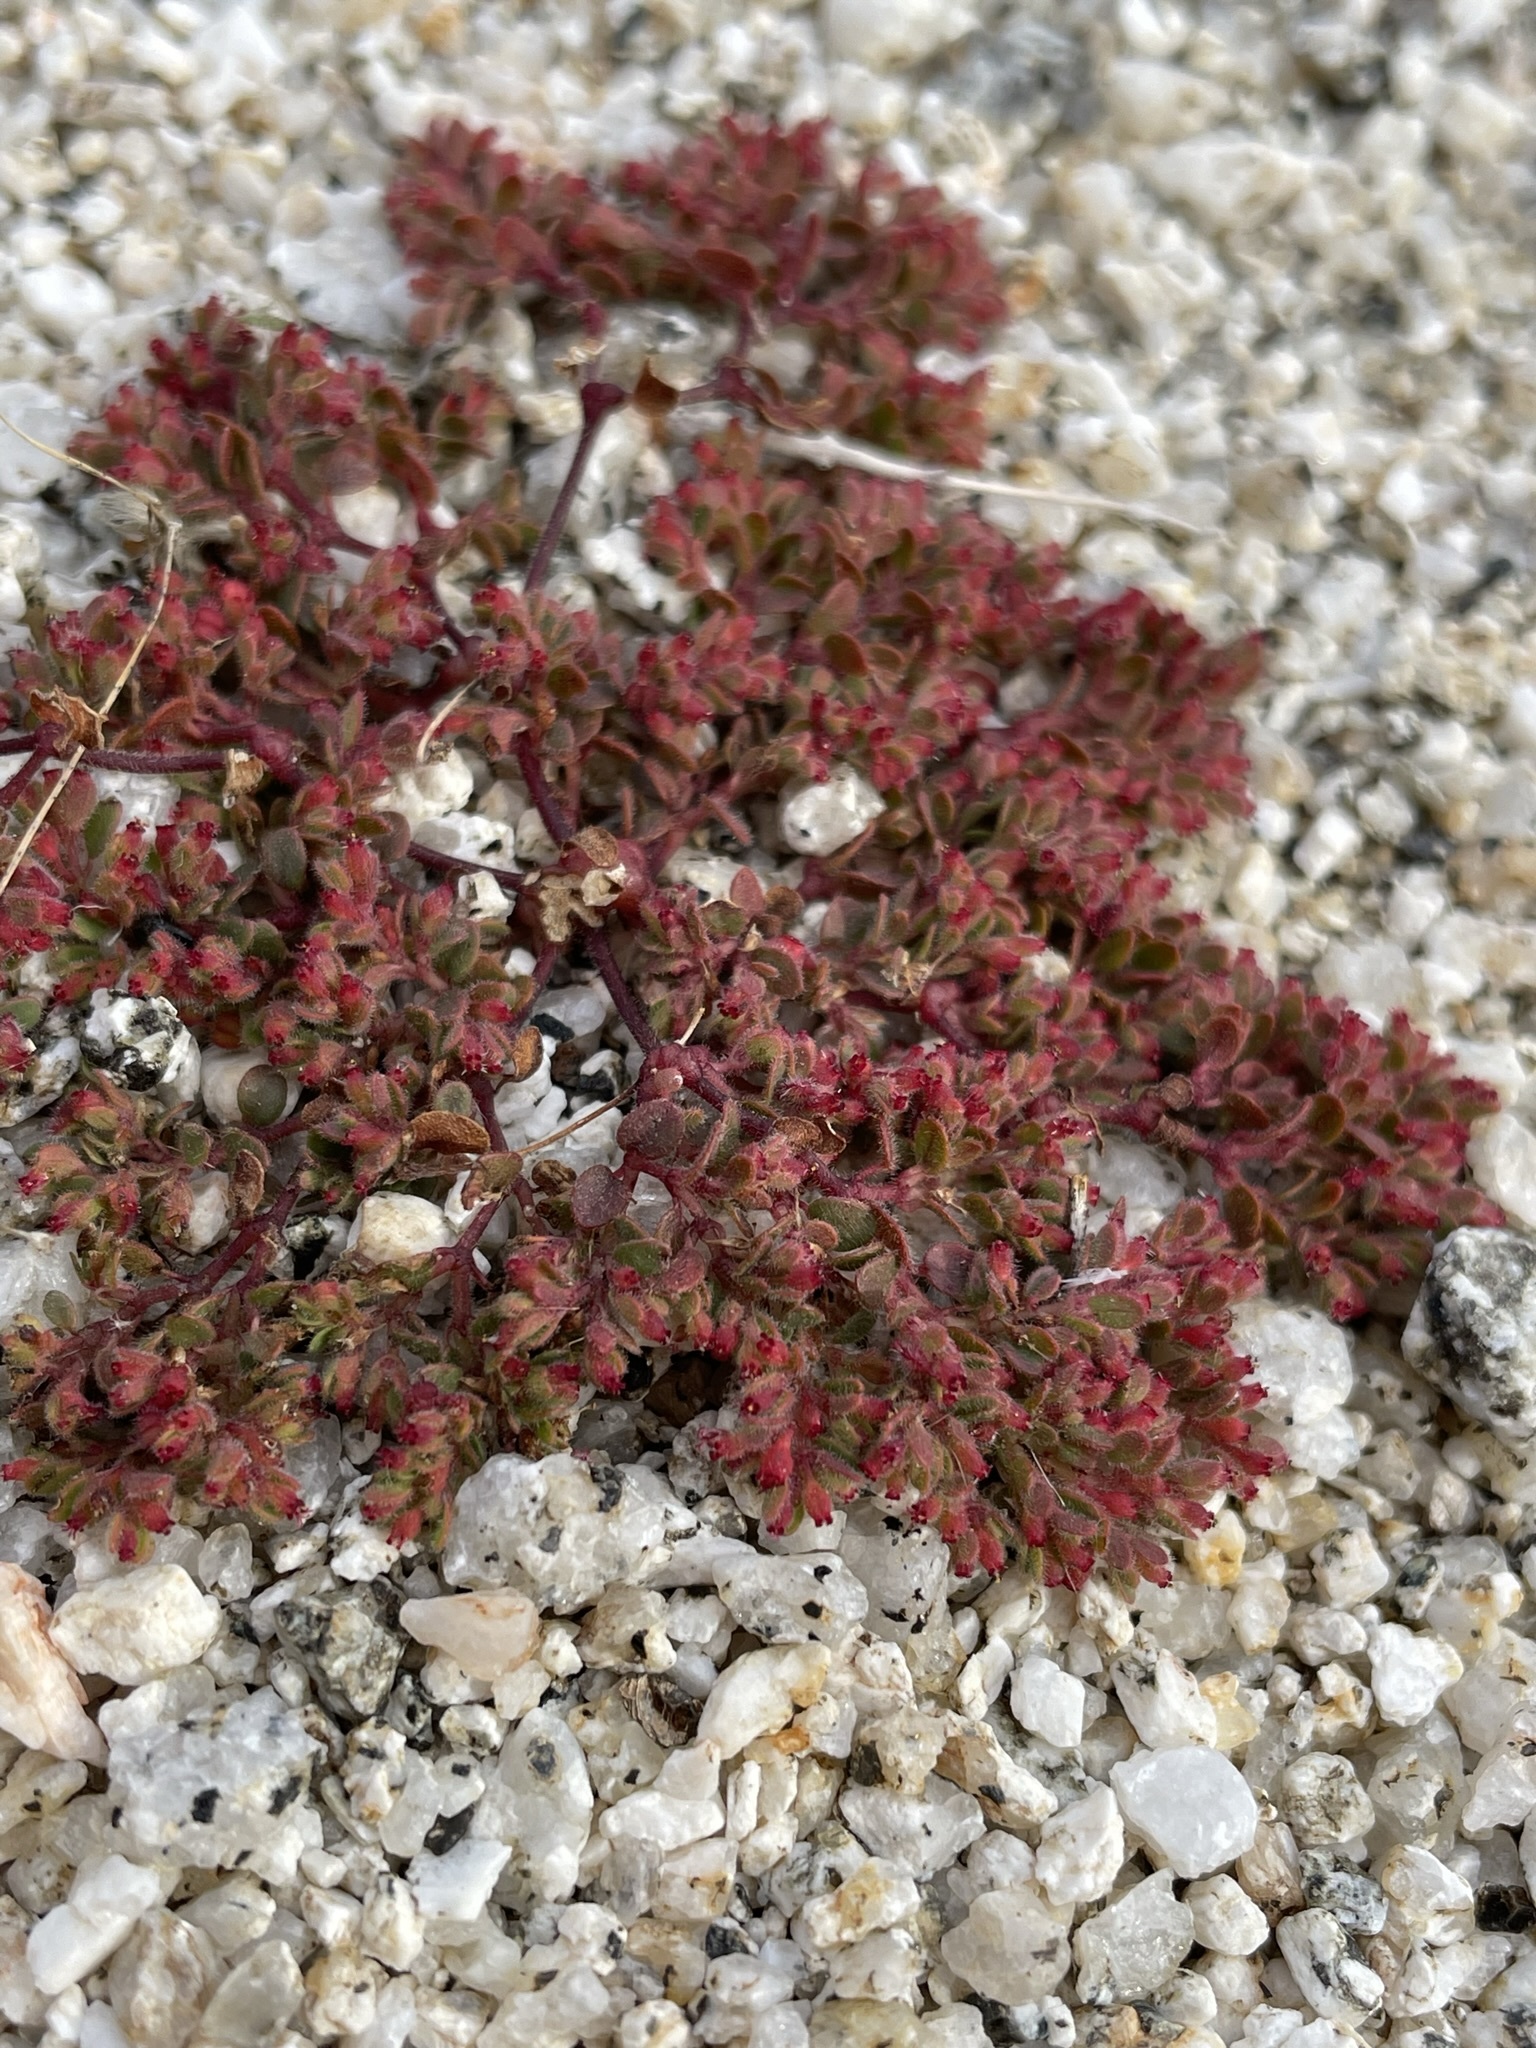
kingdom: Plantae
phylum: Tracheophyta
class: Magnoliopsida
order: Malpighiales
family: Euphorbiaceae
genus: Euphorbia
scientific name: Euphorbia setiloba
